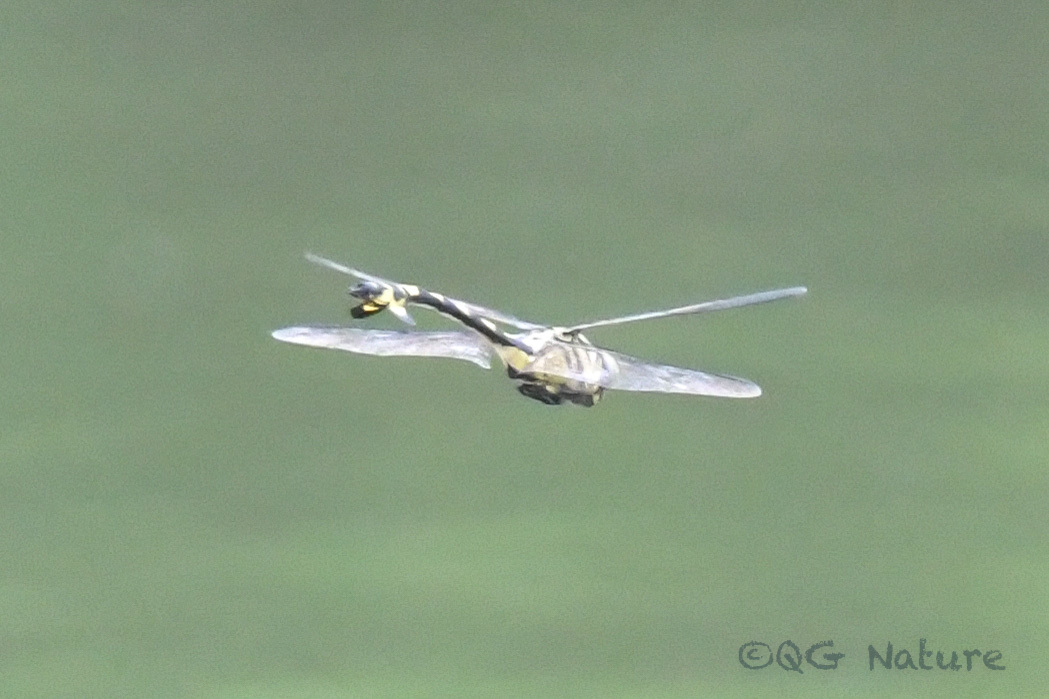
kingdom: Animalia
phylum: Arthropoda
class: Insecta
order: Odonata
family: Gomphidae
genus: Sinictinogomphus
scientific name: Sinictinogomphus clavatus
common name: Golden flangetail
